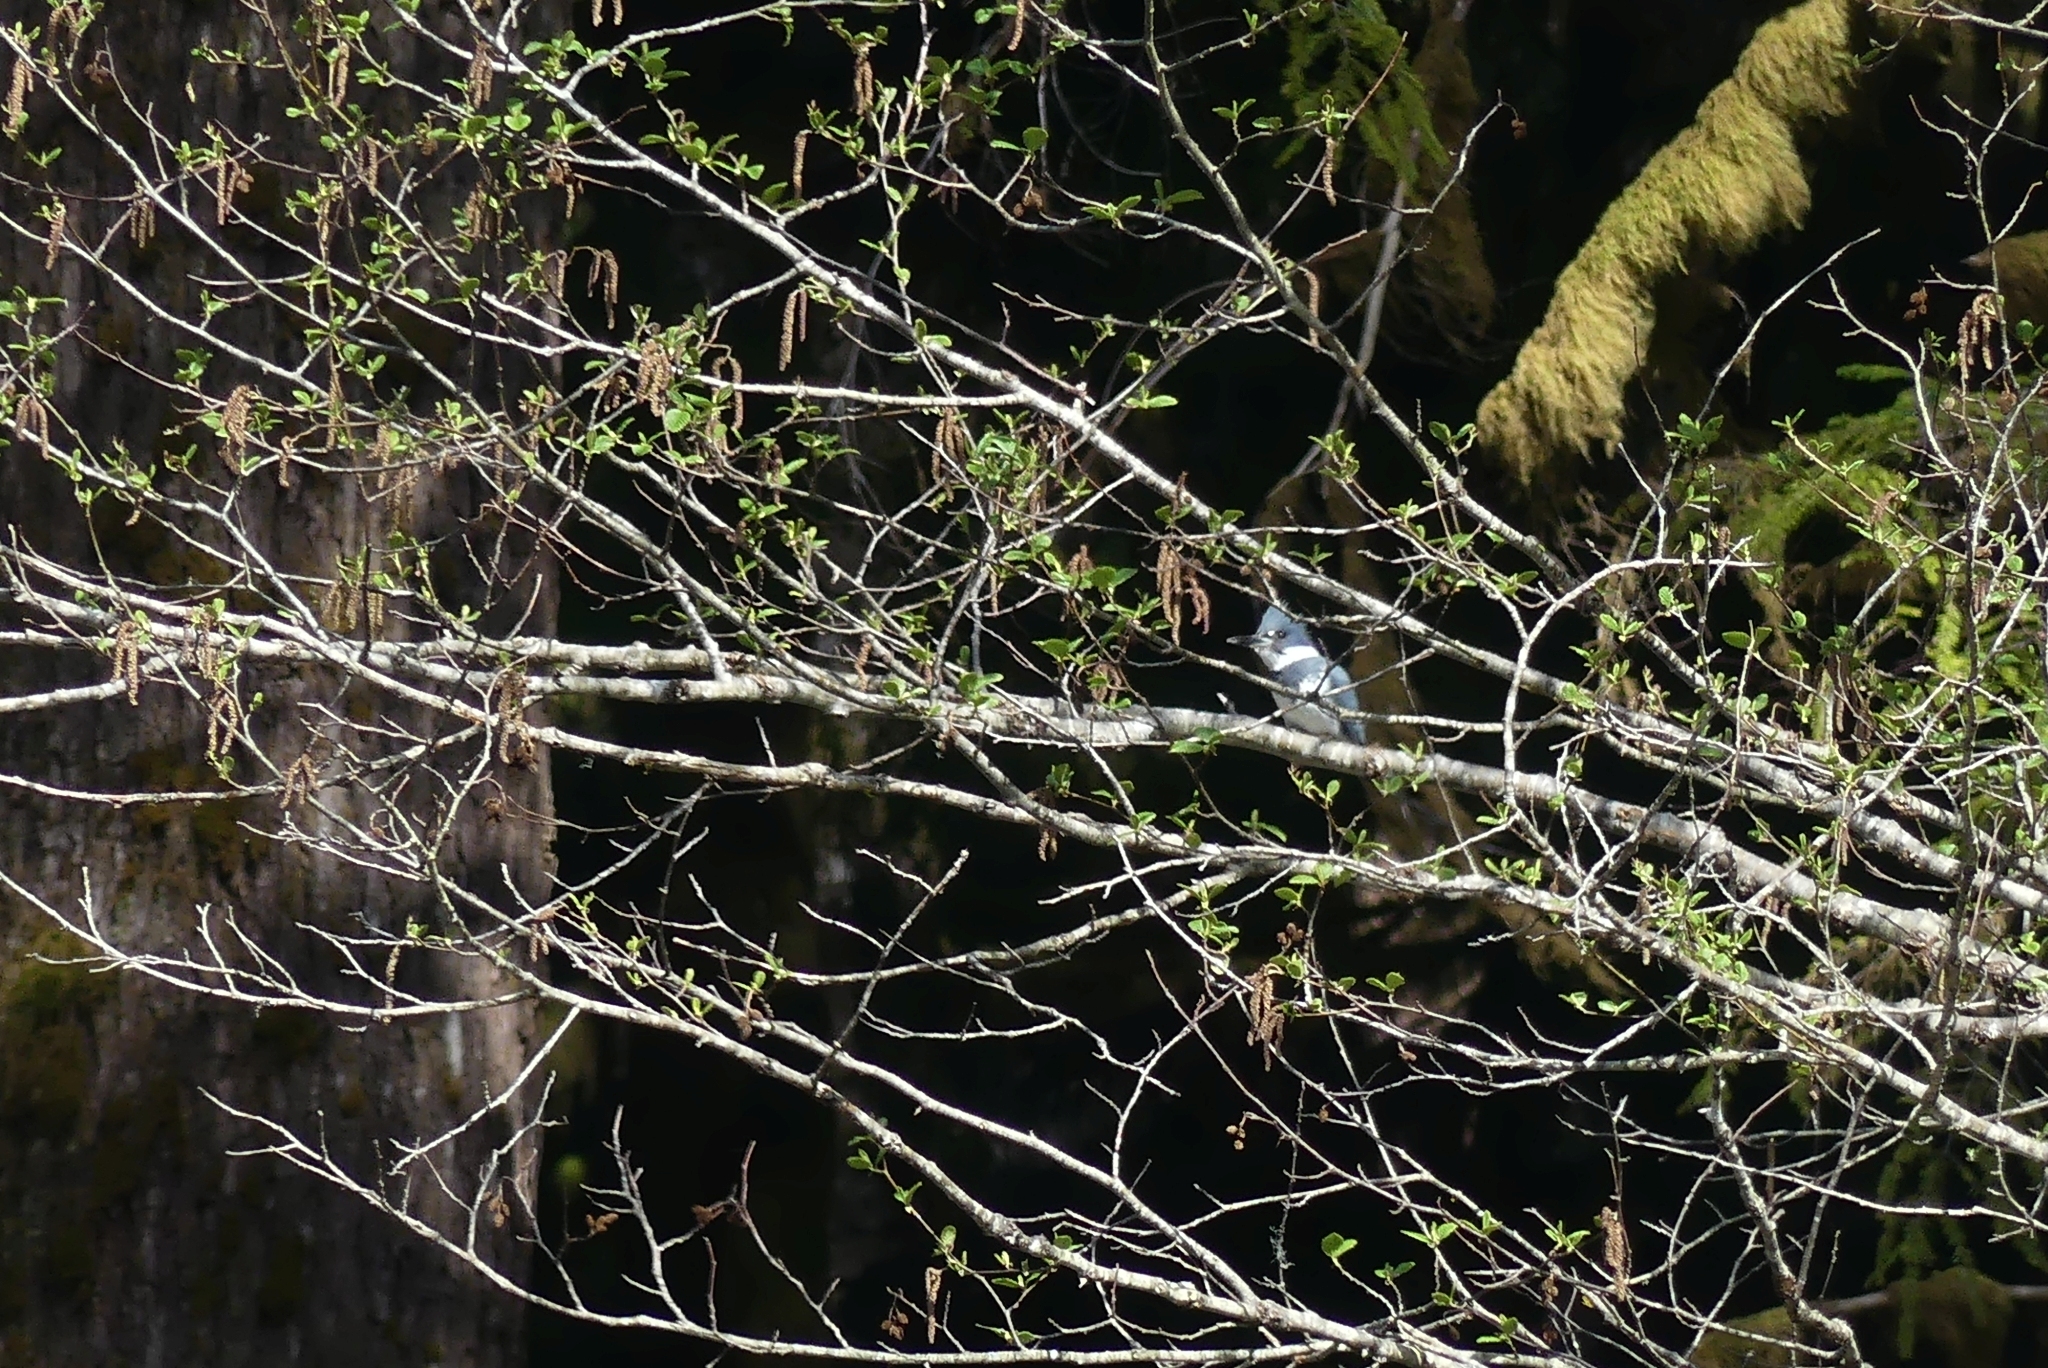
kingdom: Animalia
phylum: Chordata
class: Aves
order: Coraciiformes
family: Alcedinidae
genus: Megaceryle
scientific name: Megaceryle alcyon
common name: Belted kingfisher
